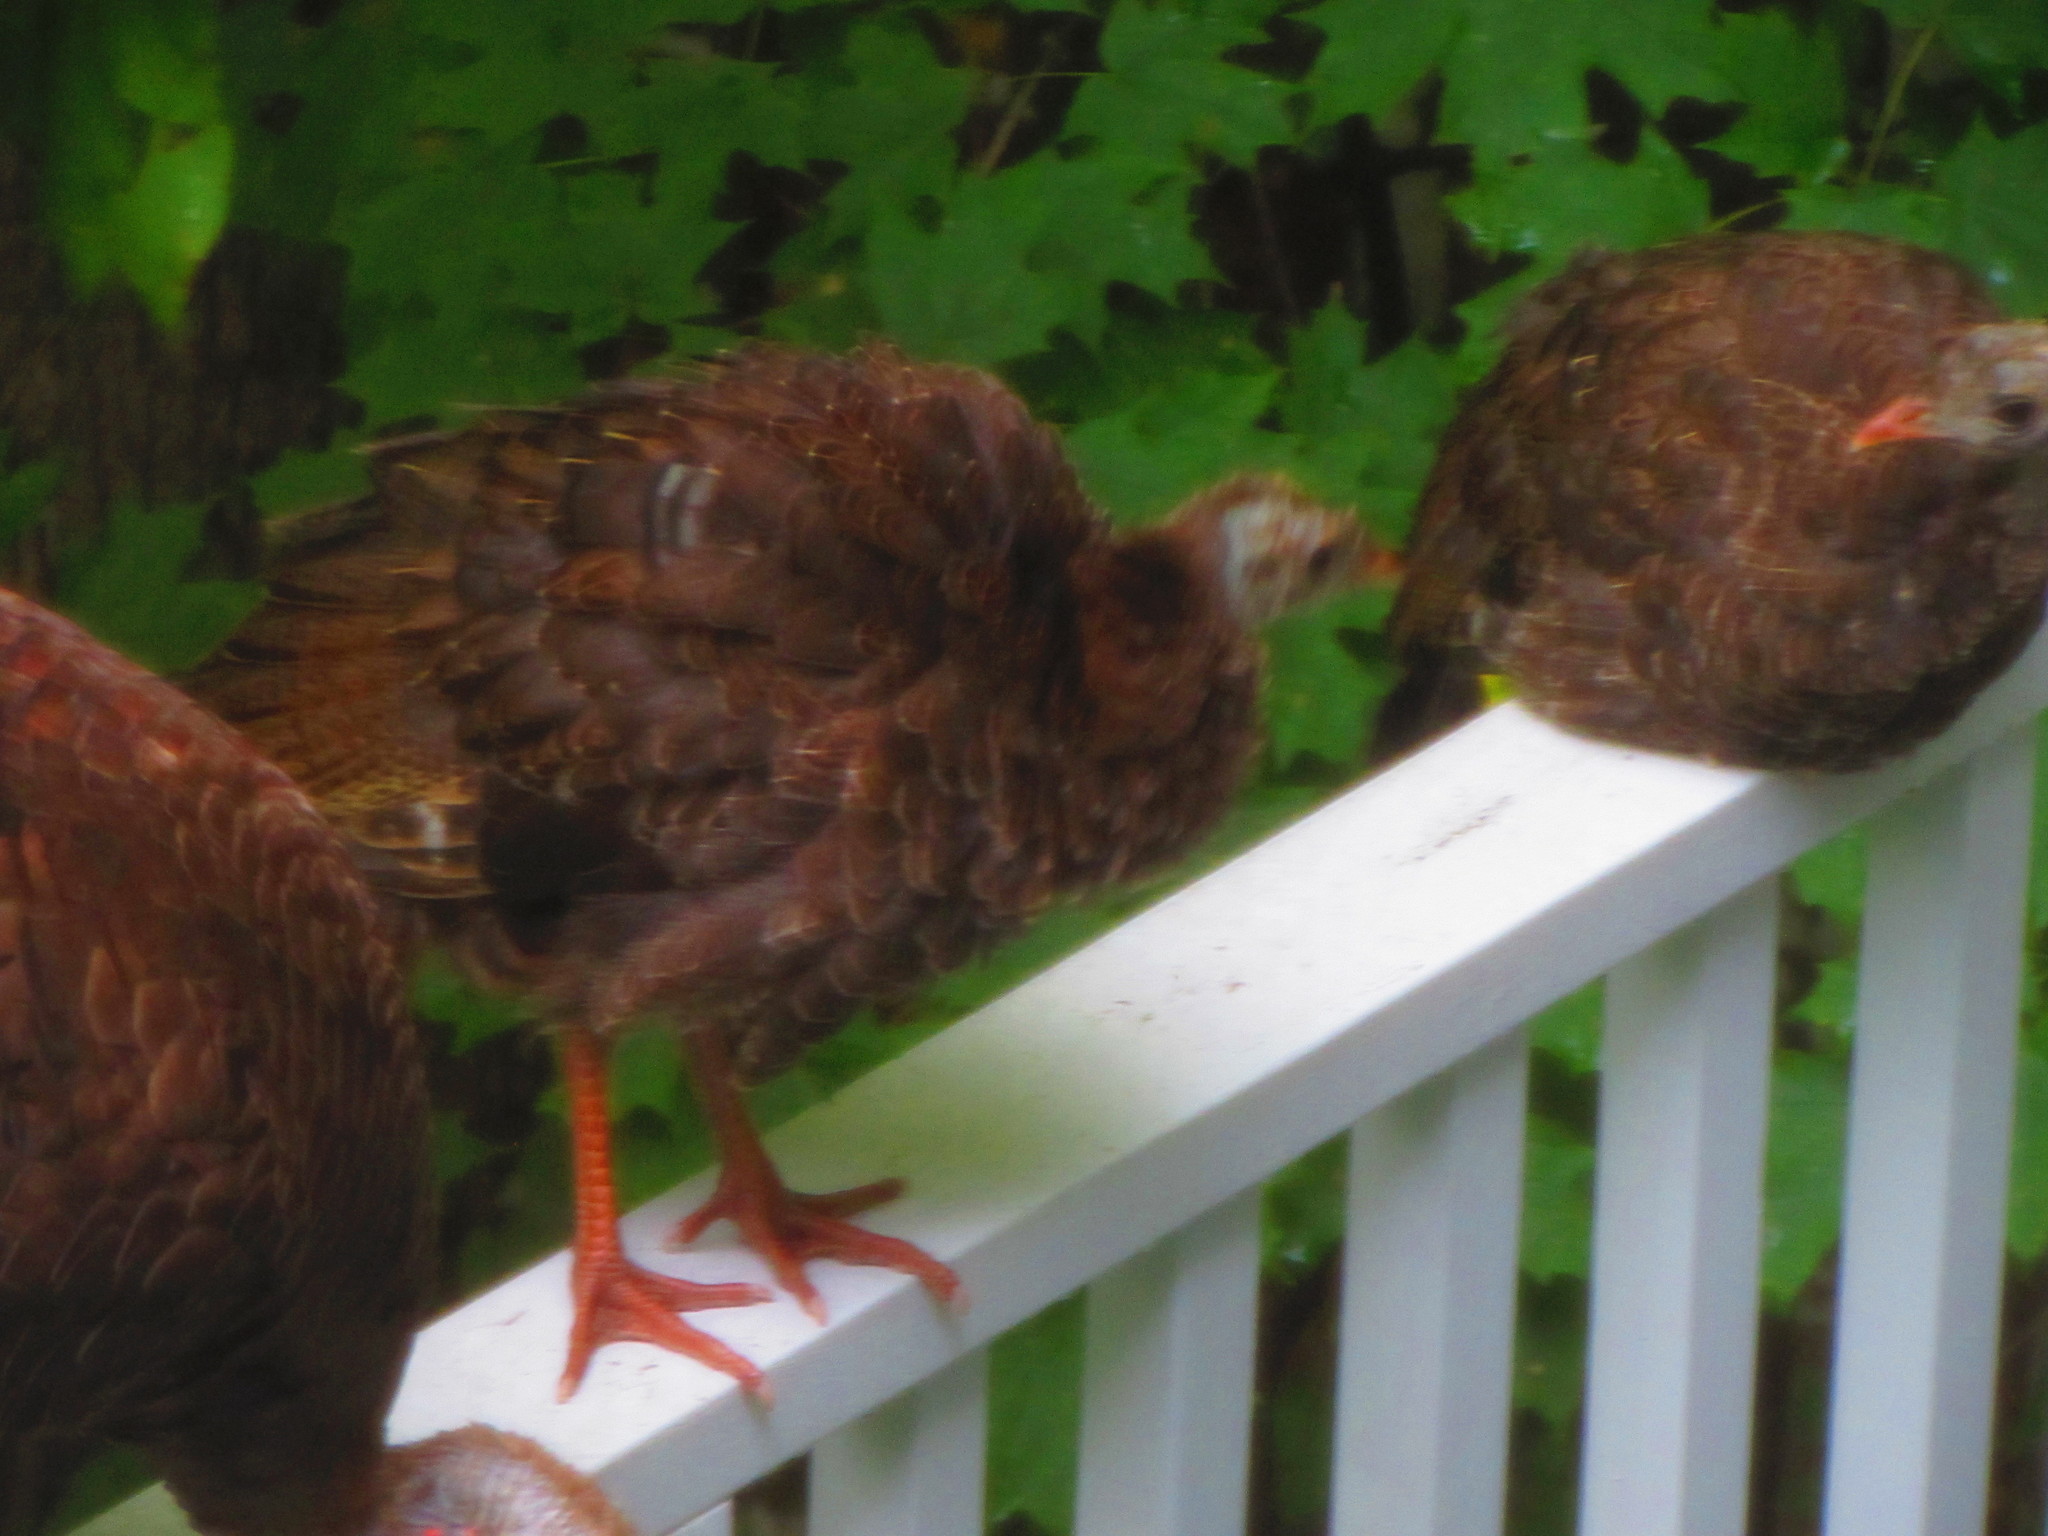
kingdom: Animalia
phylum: Chordata
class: Aves
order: Galliformes
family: Phasianidae
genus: Meleagris
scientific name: Meleagris gallopavo
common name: Wild turkey
